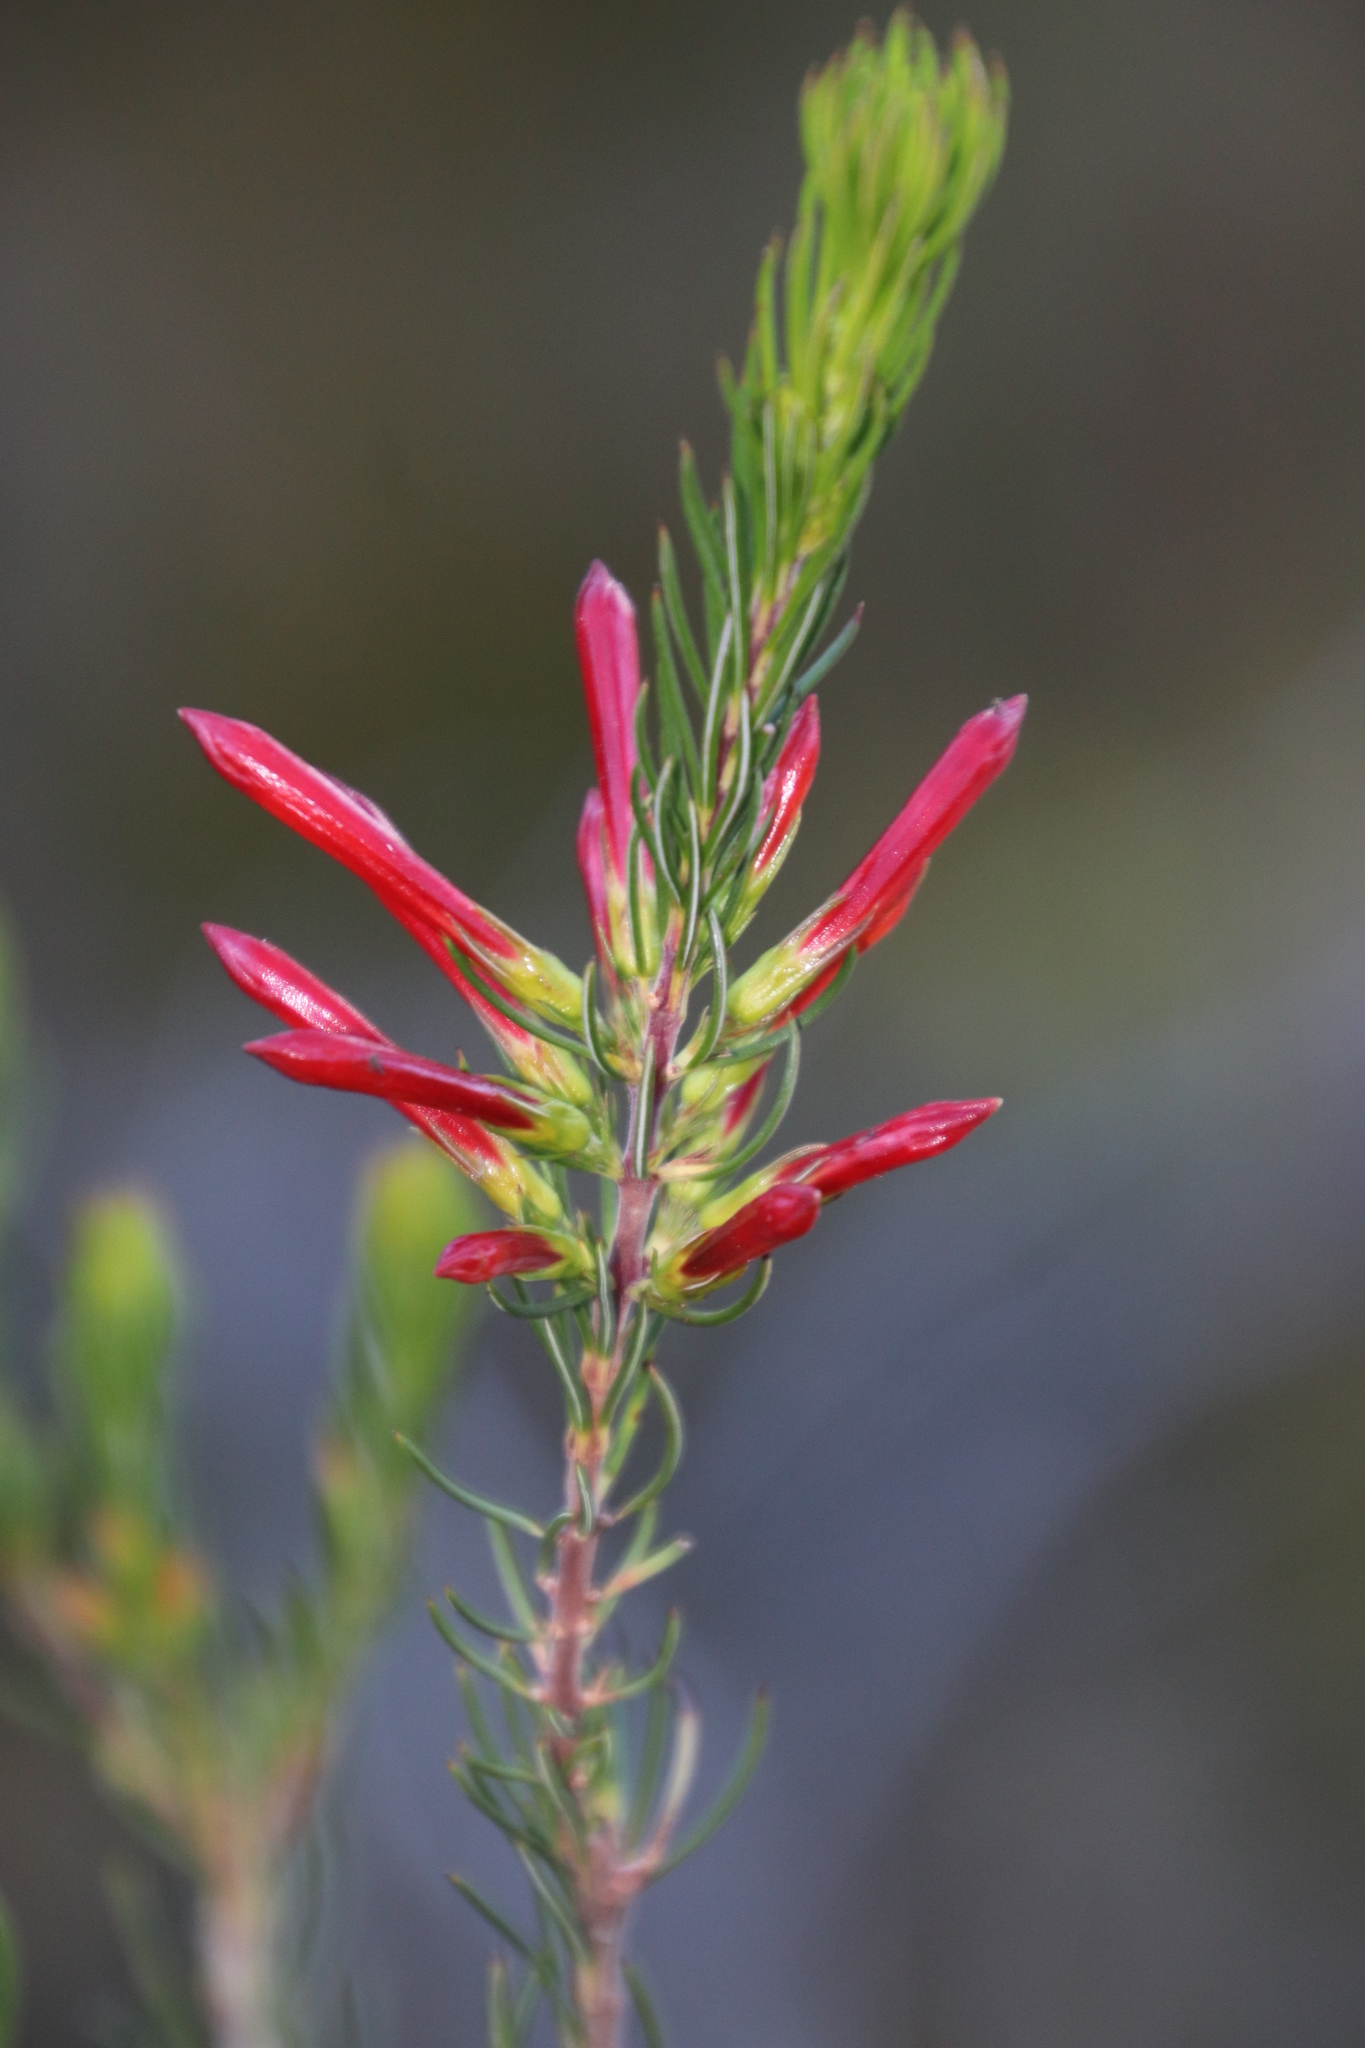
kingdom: Plantae
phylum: Tracheophyta
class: Magnoliopsida
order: Ericales
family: Ericaceae
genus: Erica
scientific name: Erica grandiflora
